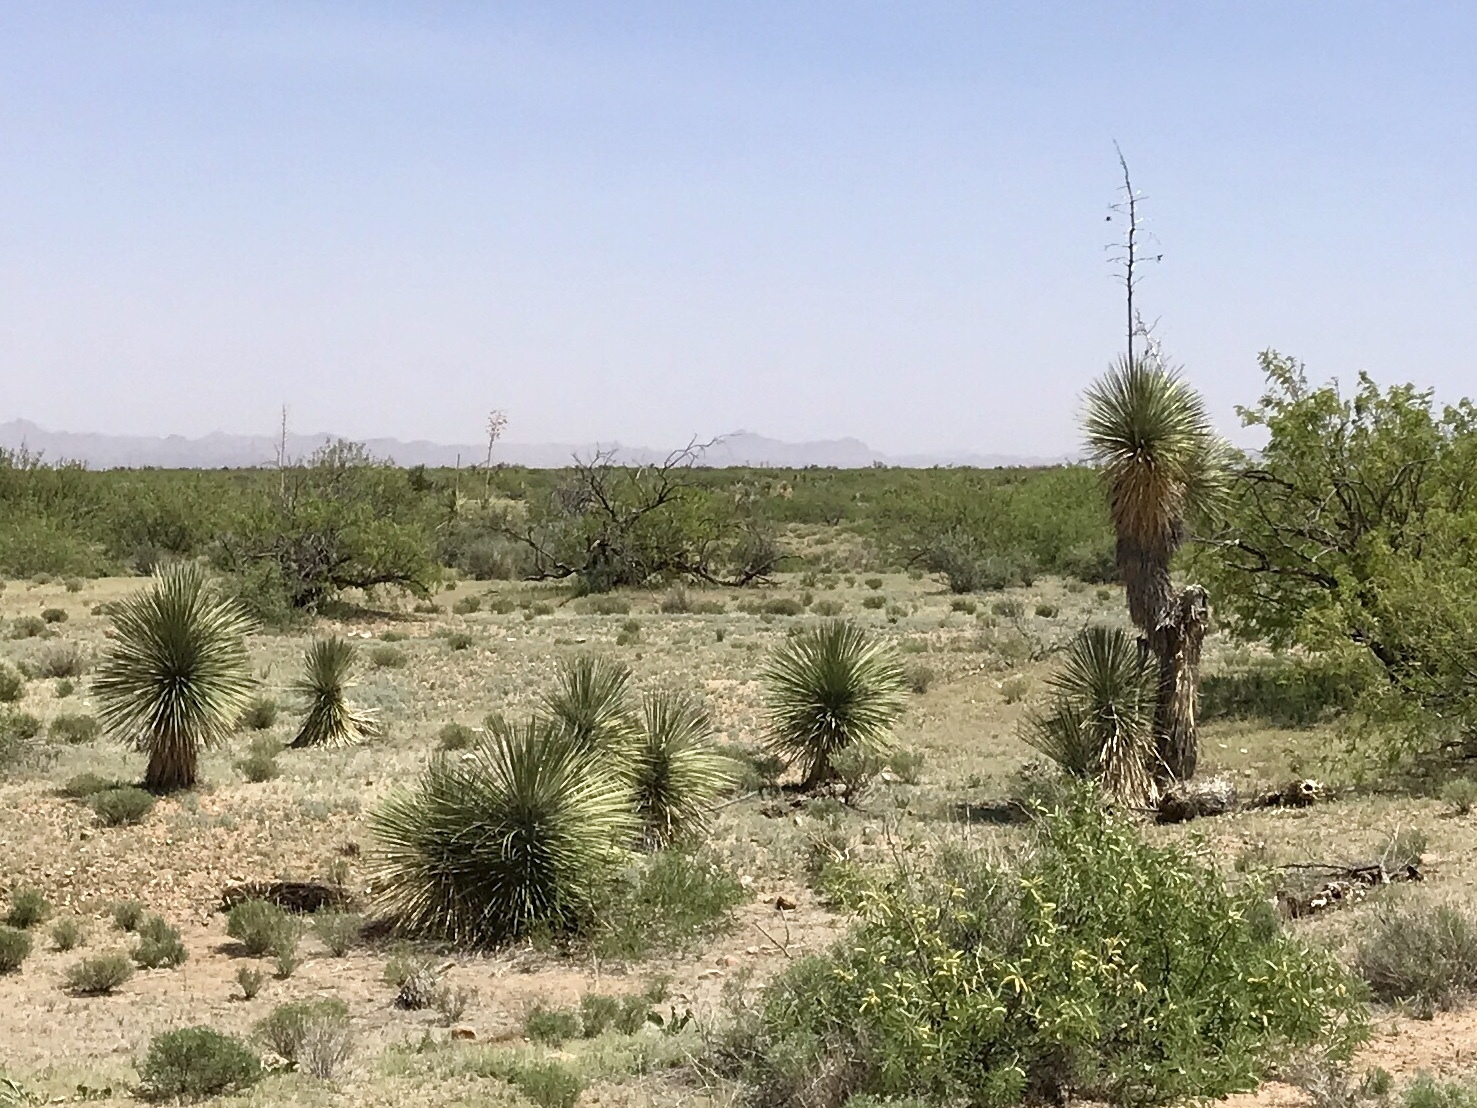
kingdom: Plantae
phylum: Tracheophyta
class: Liliopsida
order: Asparagales
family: Asparagaceae
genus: Yucca
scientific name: Yucca elata
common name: Palmella
